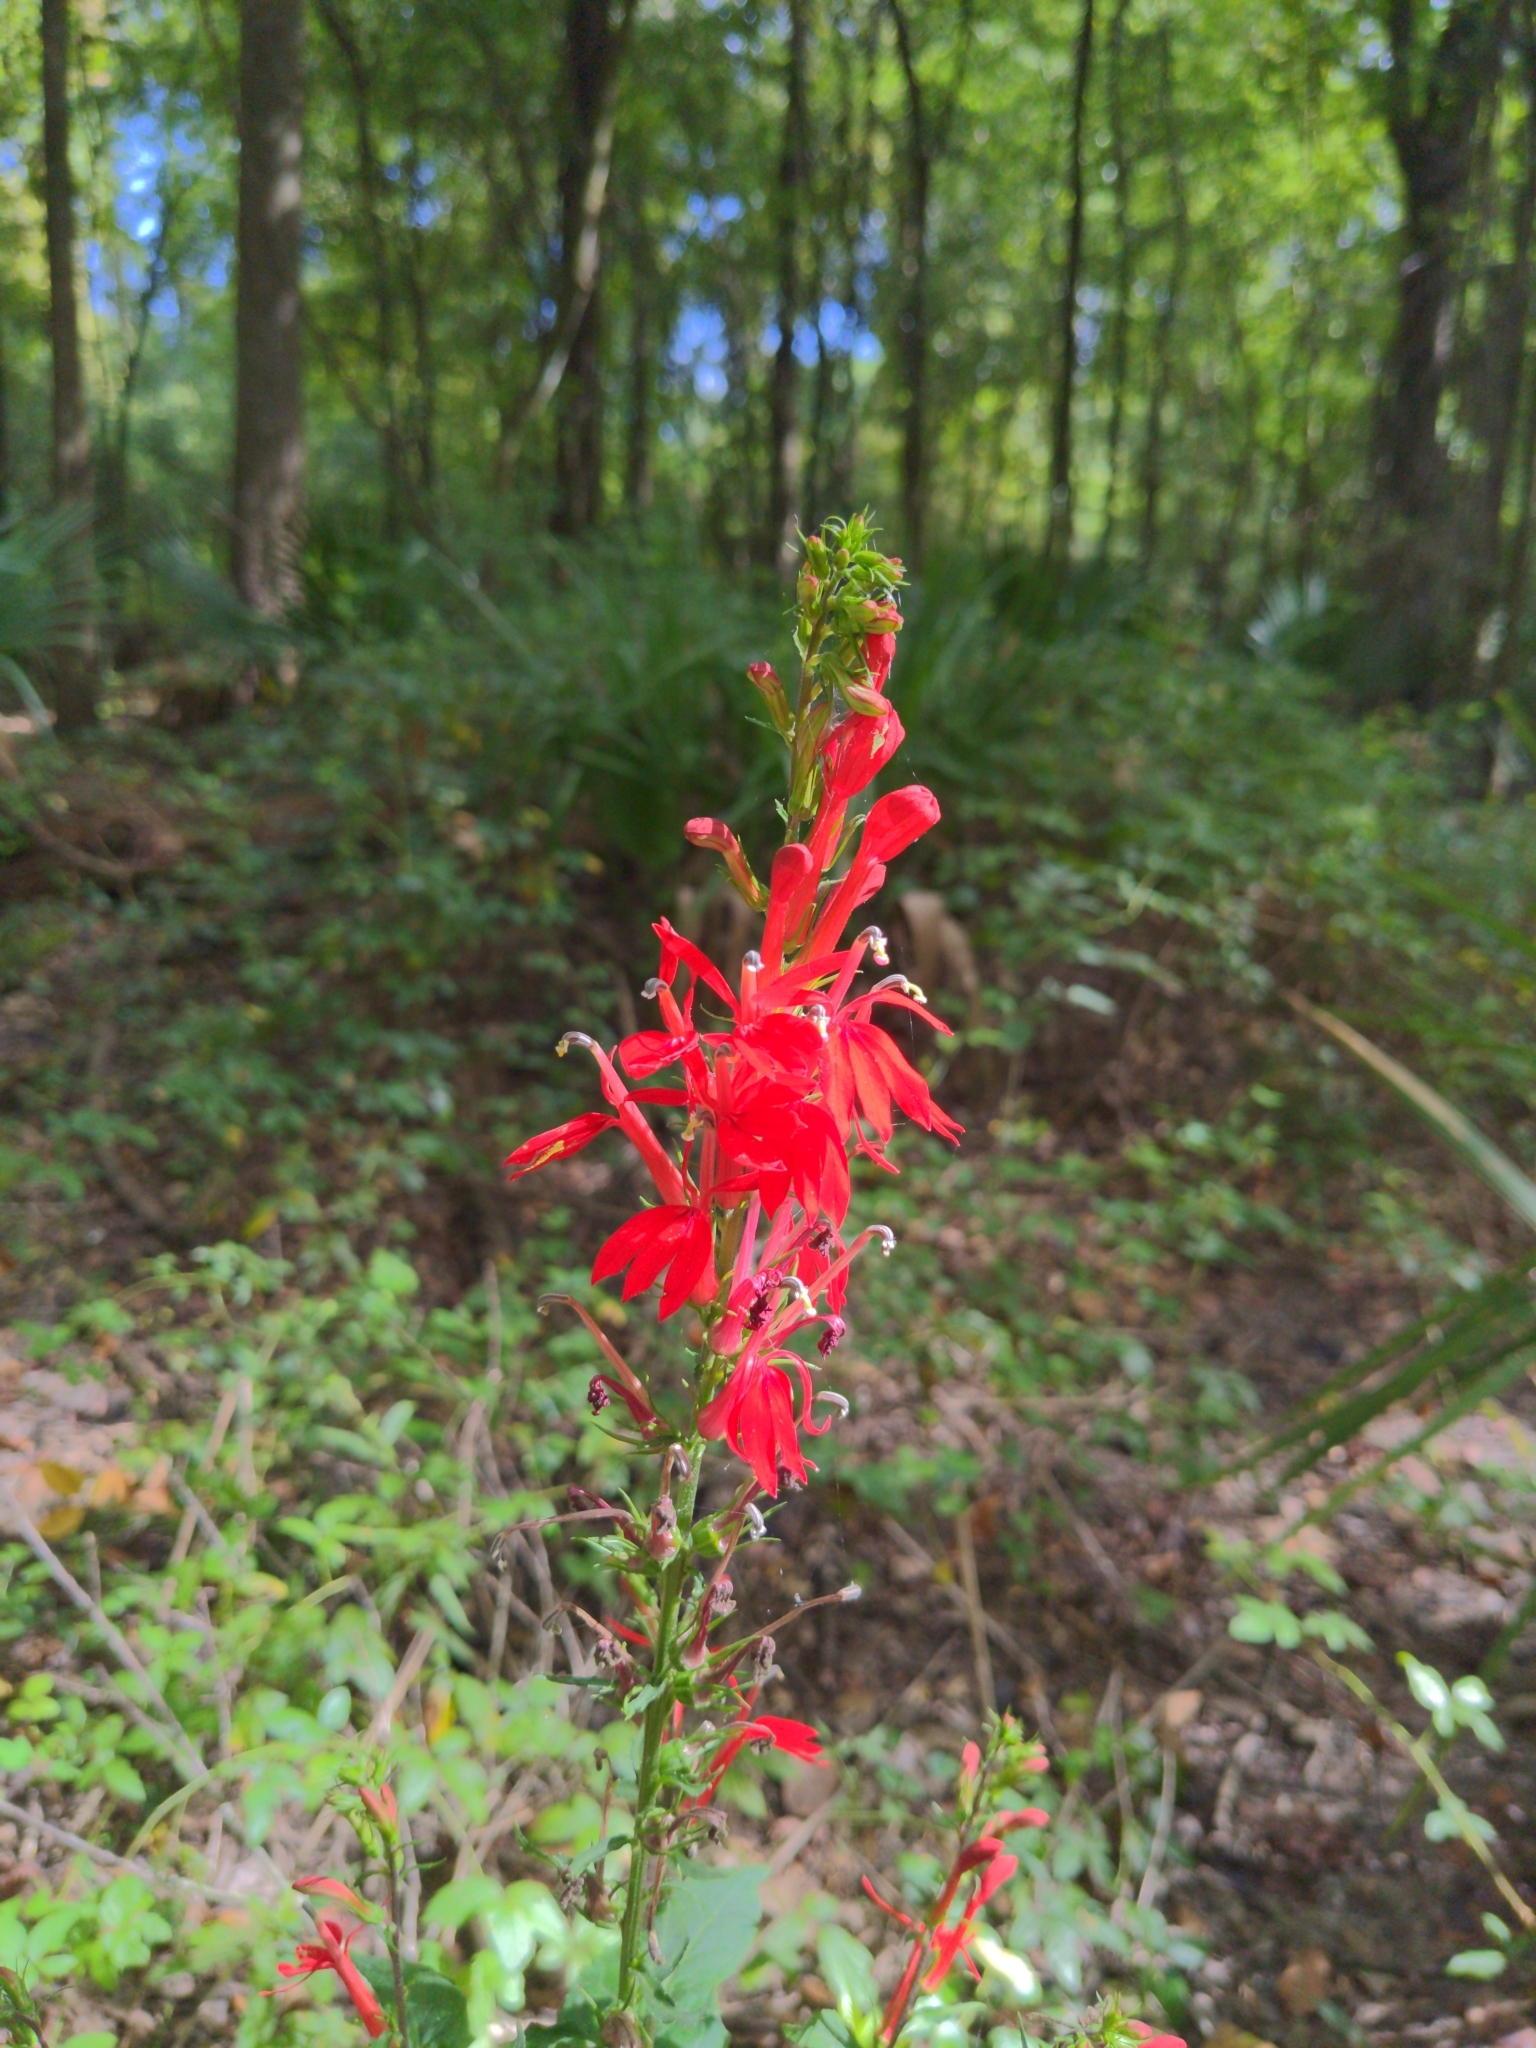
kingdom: Plantae
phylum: Tracheophyta
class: Magnoliopsida
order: Asterales
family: Campanulaceae
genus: Lobelia
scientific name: Lobelia cardinalis
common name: Cardinal flower
